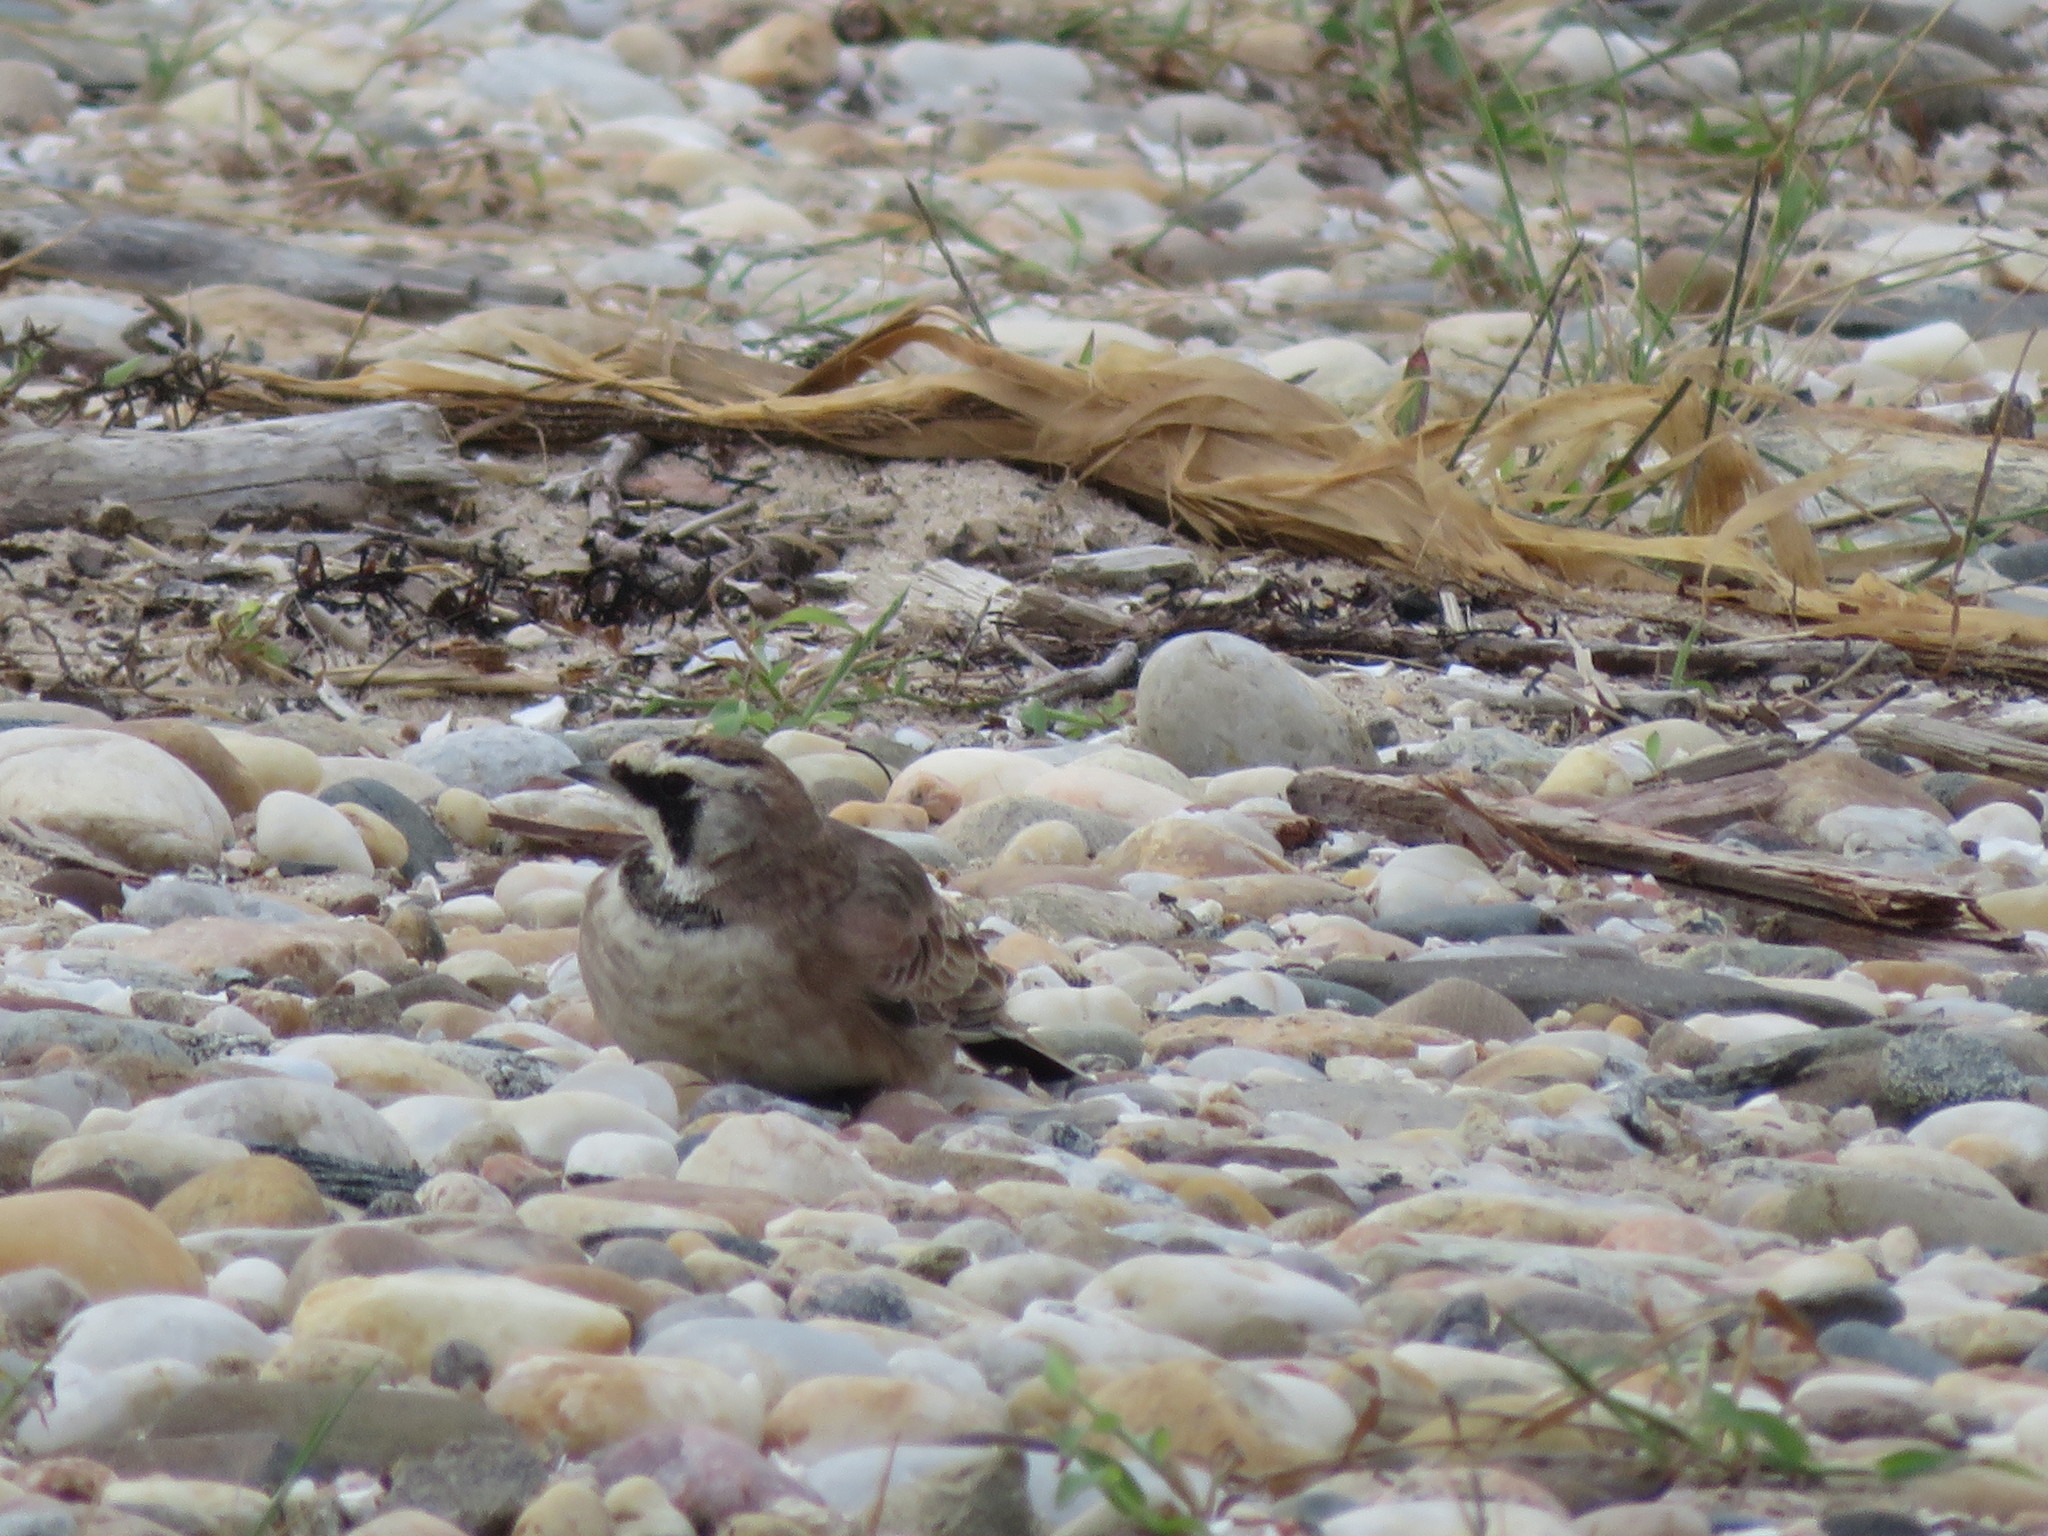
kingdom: Animalia
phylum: Chordata
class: Aves
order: Passeriformes
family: Alaudidae
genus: Eremophila
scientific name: Eremophila alpestris
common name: Horned lark
